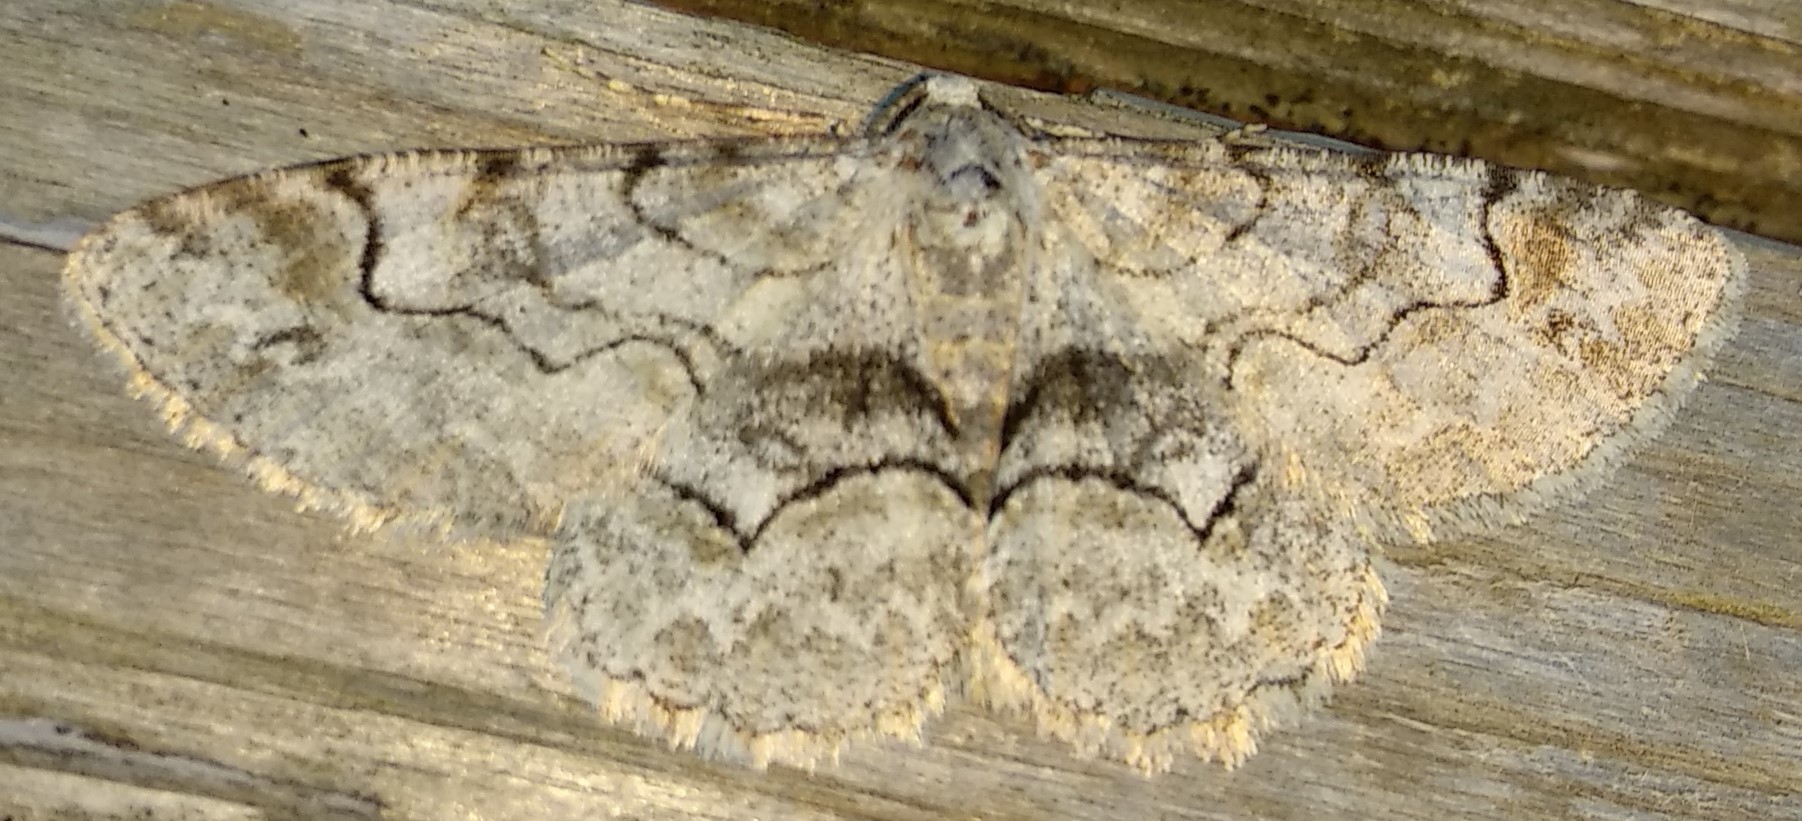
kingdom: Animalia
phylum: Arthropoda
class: Insecta
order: Lepidoptera
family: Geometridae
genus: Iridopsis
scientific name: Iridopsis larvaria
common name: Bent-line gray
